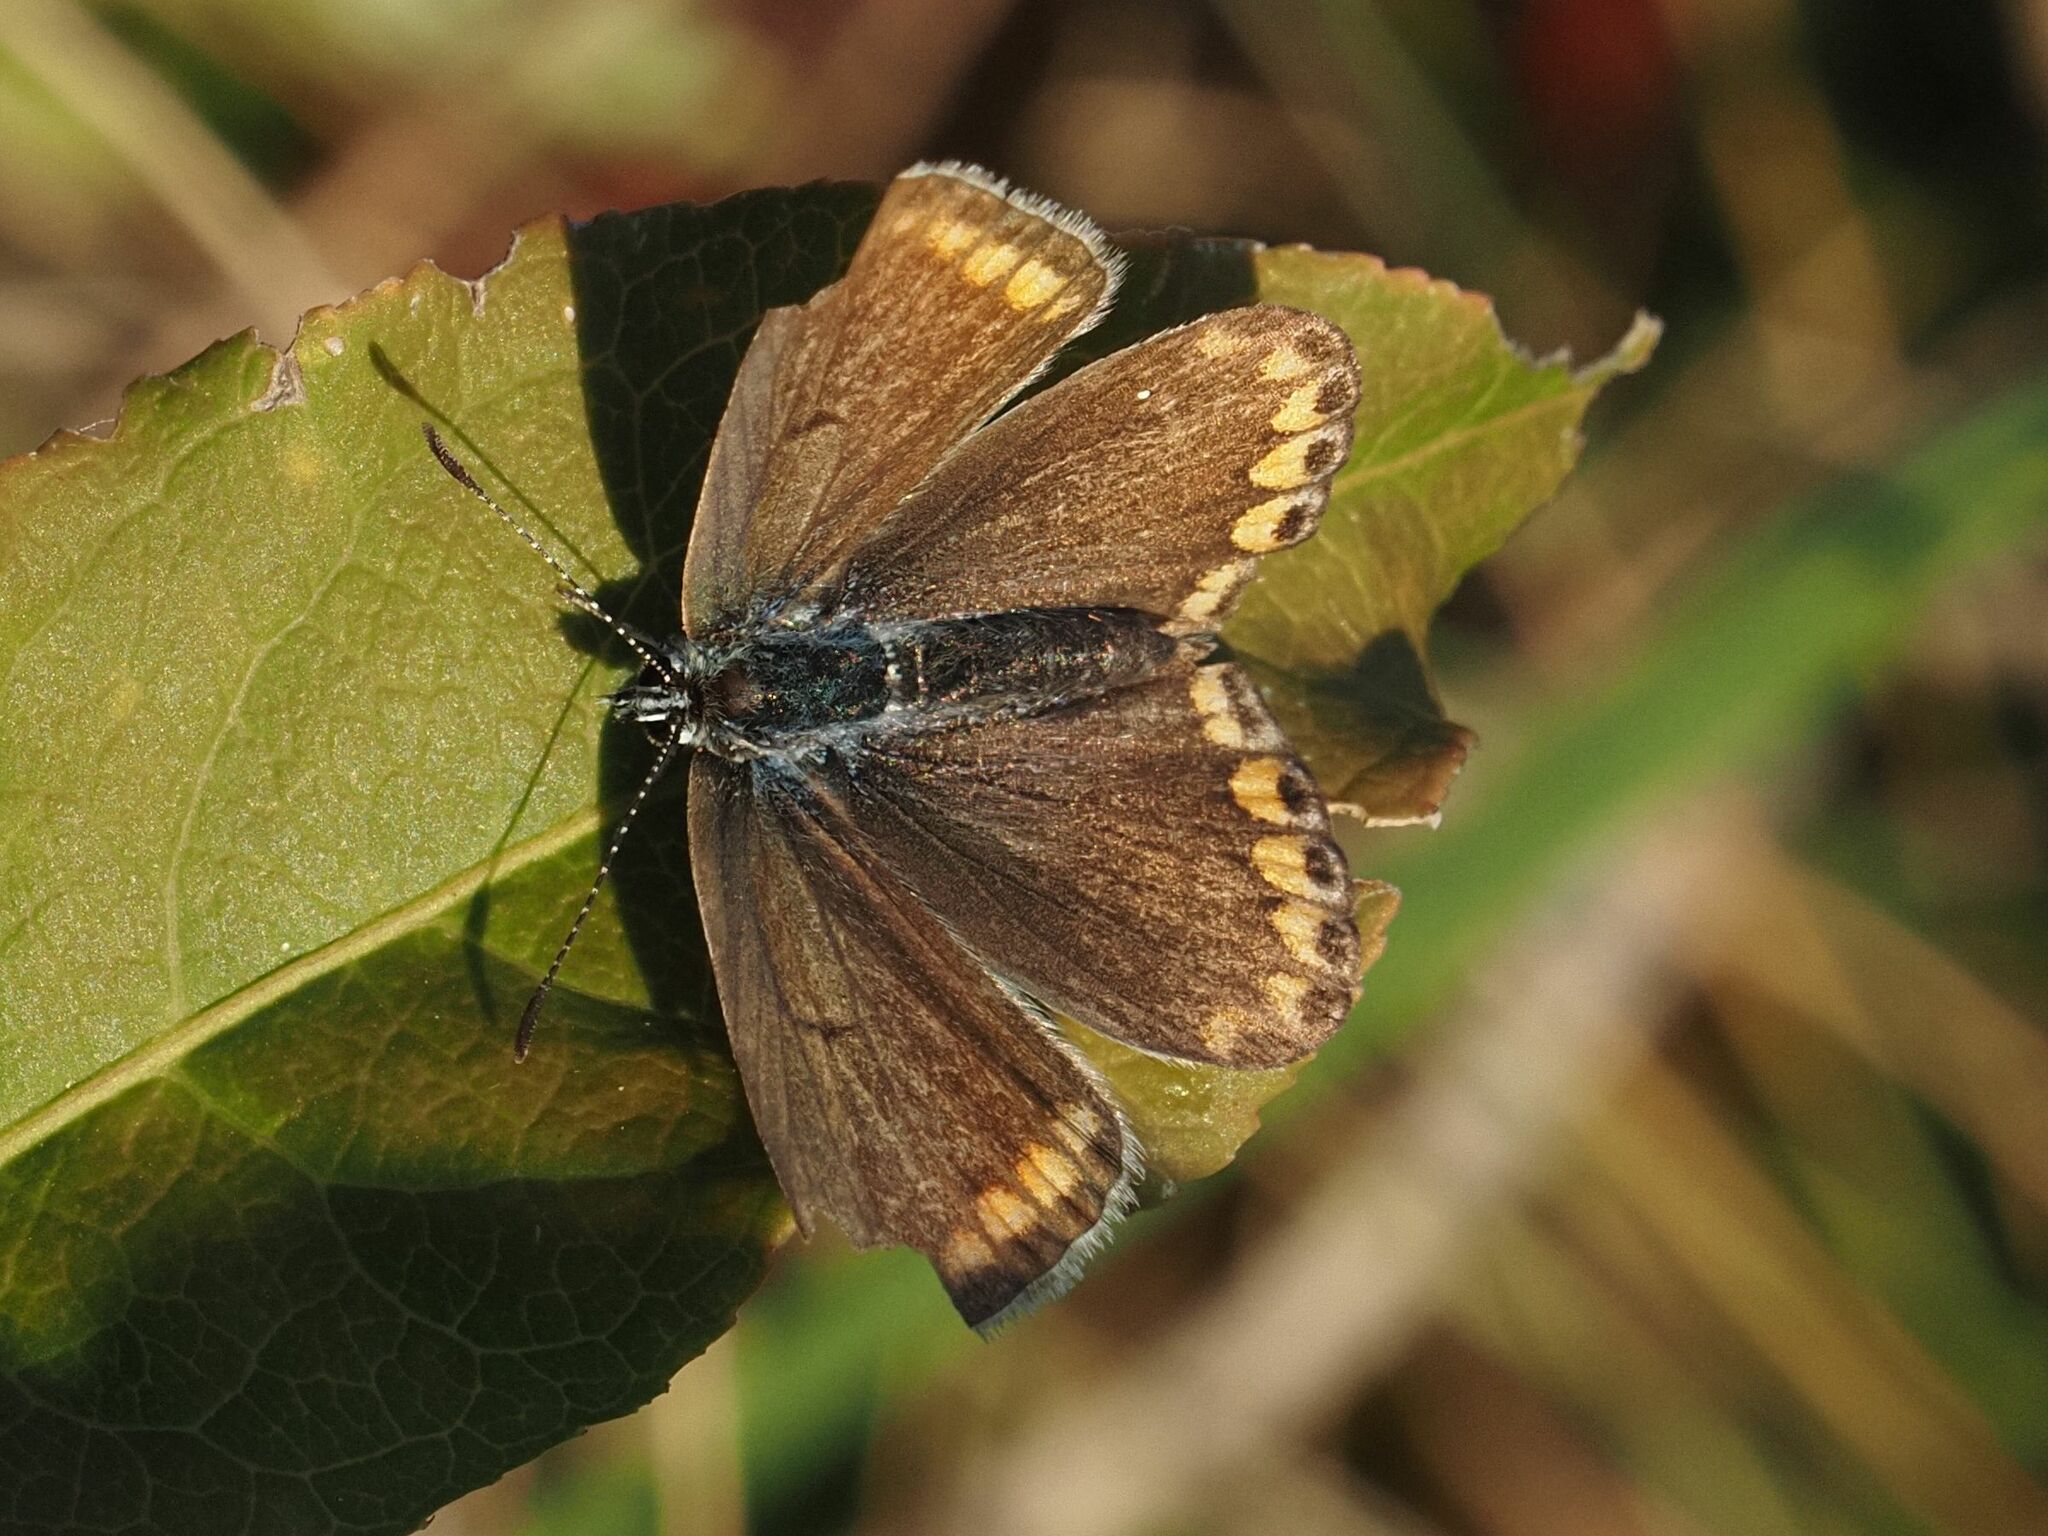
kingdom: Animalia
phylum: Arthropoda
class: Insecta
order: Lepidoptera
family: Lycaenidae
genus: Polyommatus
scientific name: Polyommatus icarus
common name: Common blue
